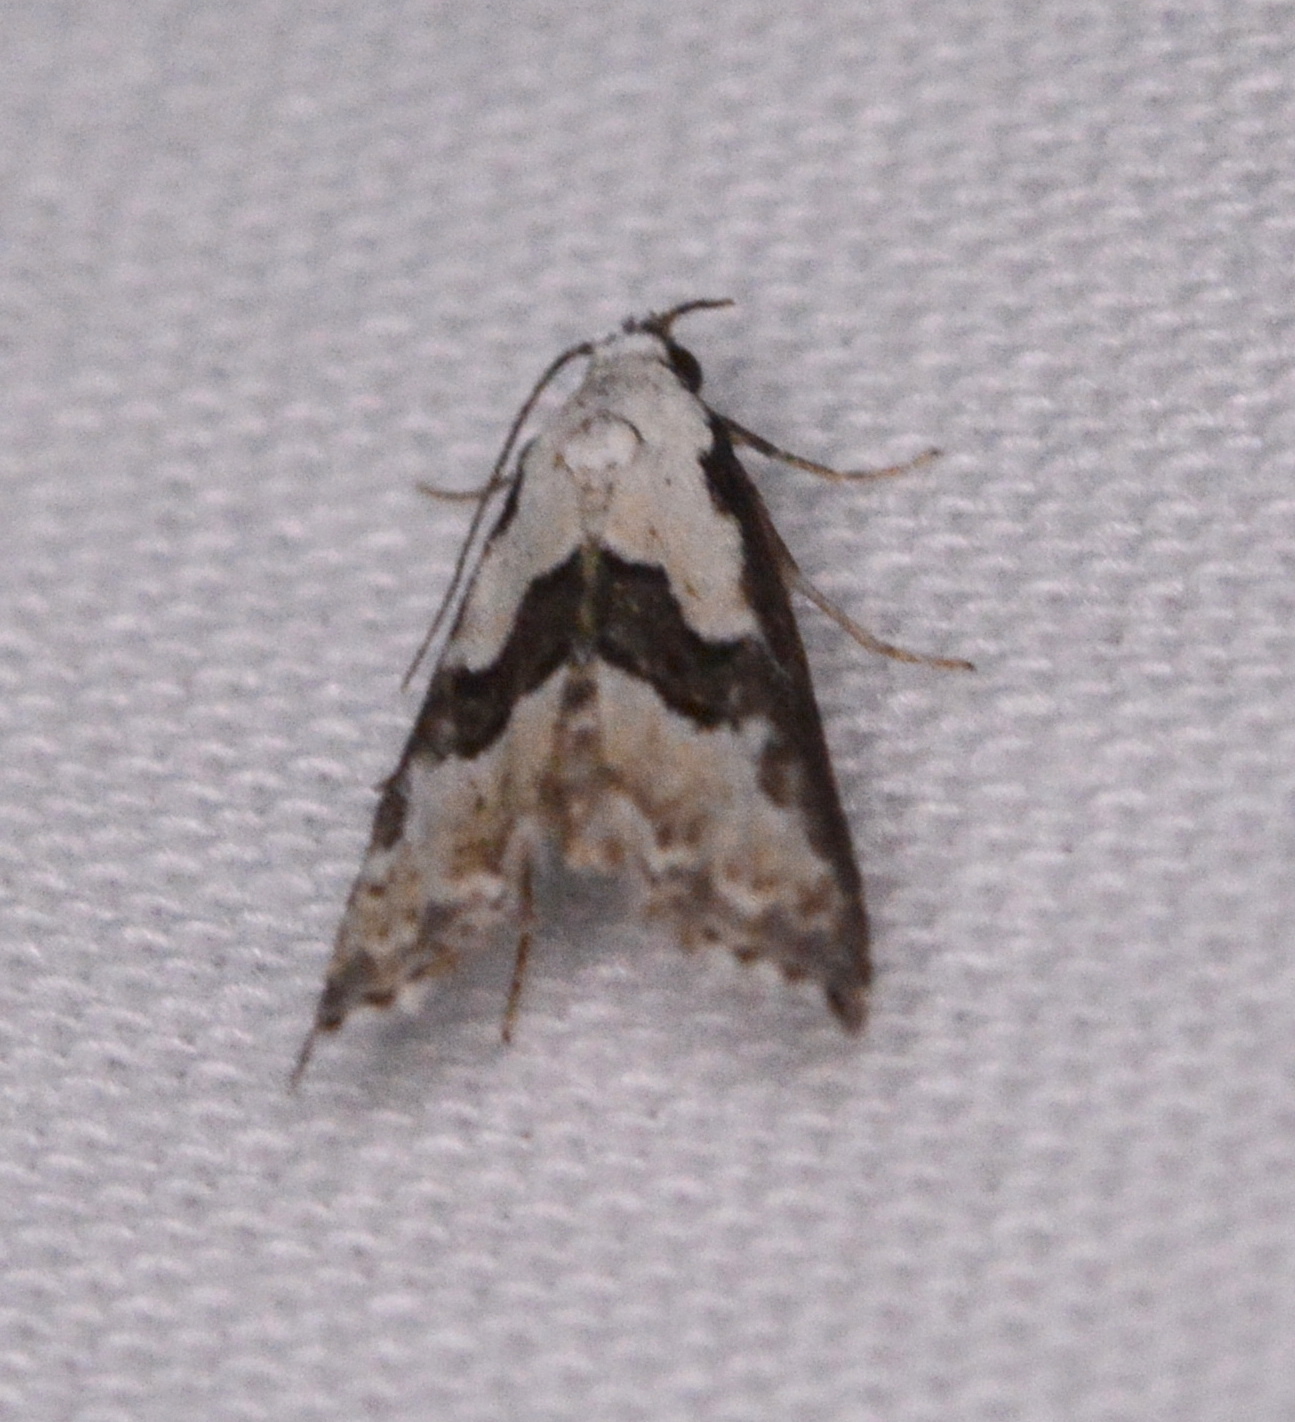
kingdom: Animalia
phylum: Arthropoda
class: Insecta
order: Lepidoptera
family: Noctuidae
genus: Nigetia
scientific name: Nigetia formosalis
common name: Thin-winged owlet
